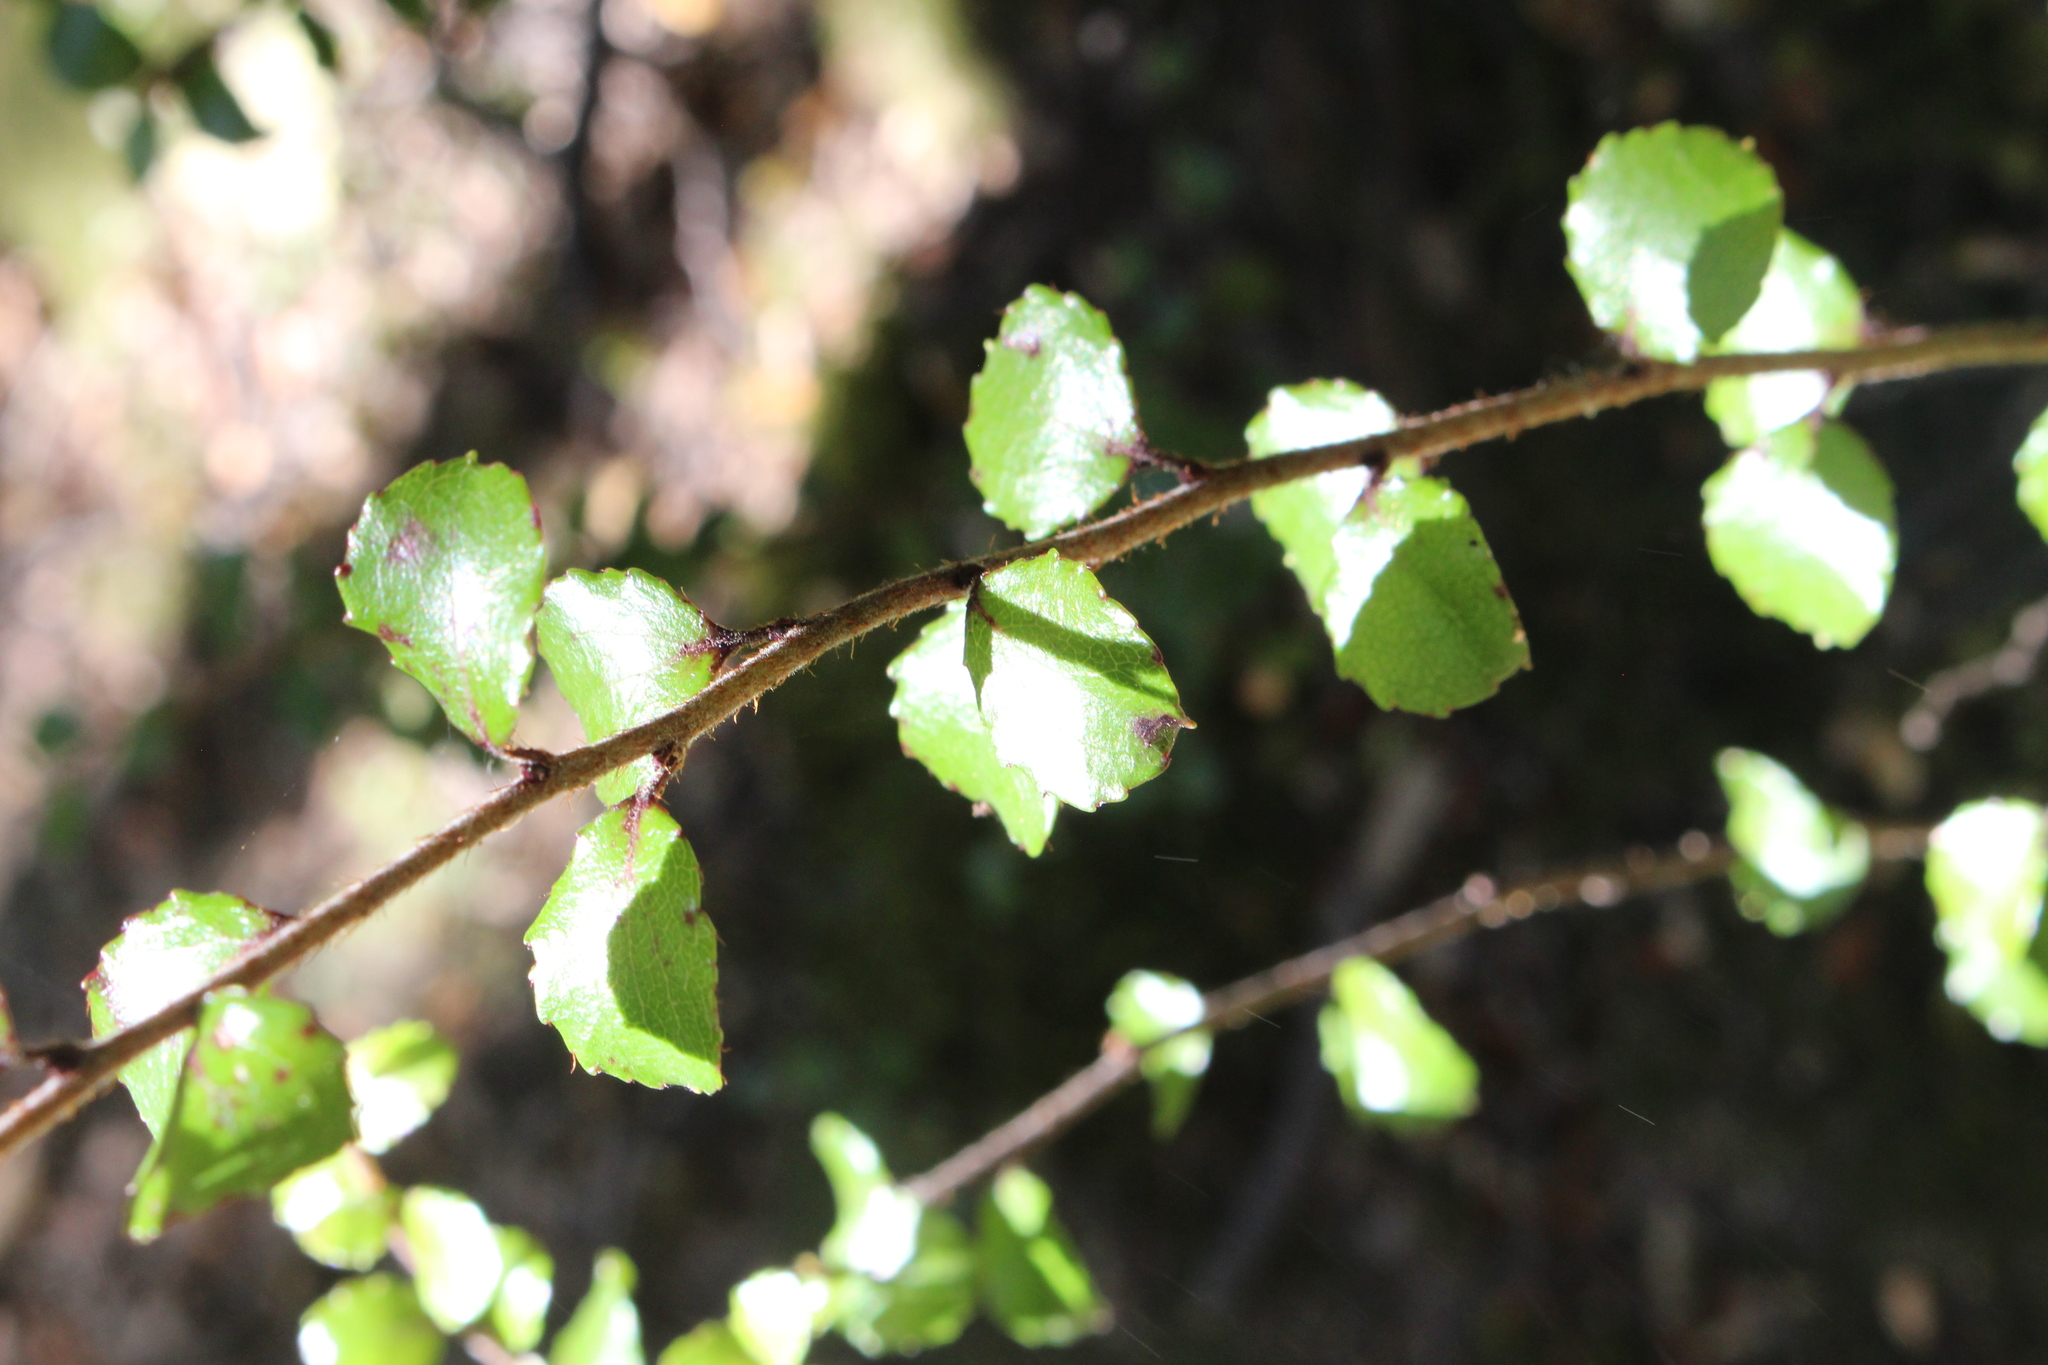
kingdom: Plantae
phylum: Tracheophyta
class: Magnoliopsida
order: Ericales
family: Ericaceae
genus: Gaultheria
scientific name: Gaultheria antipoda
